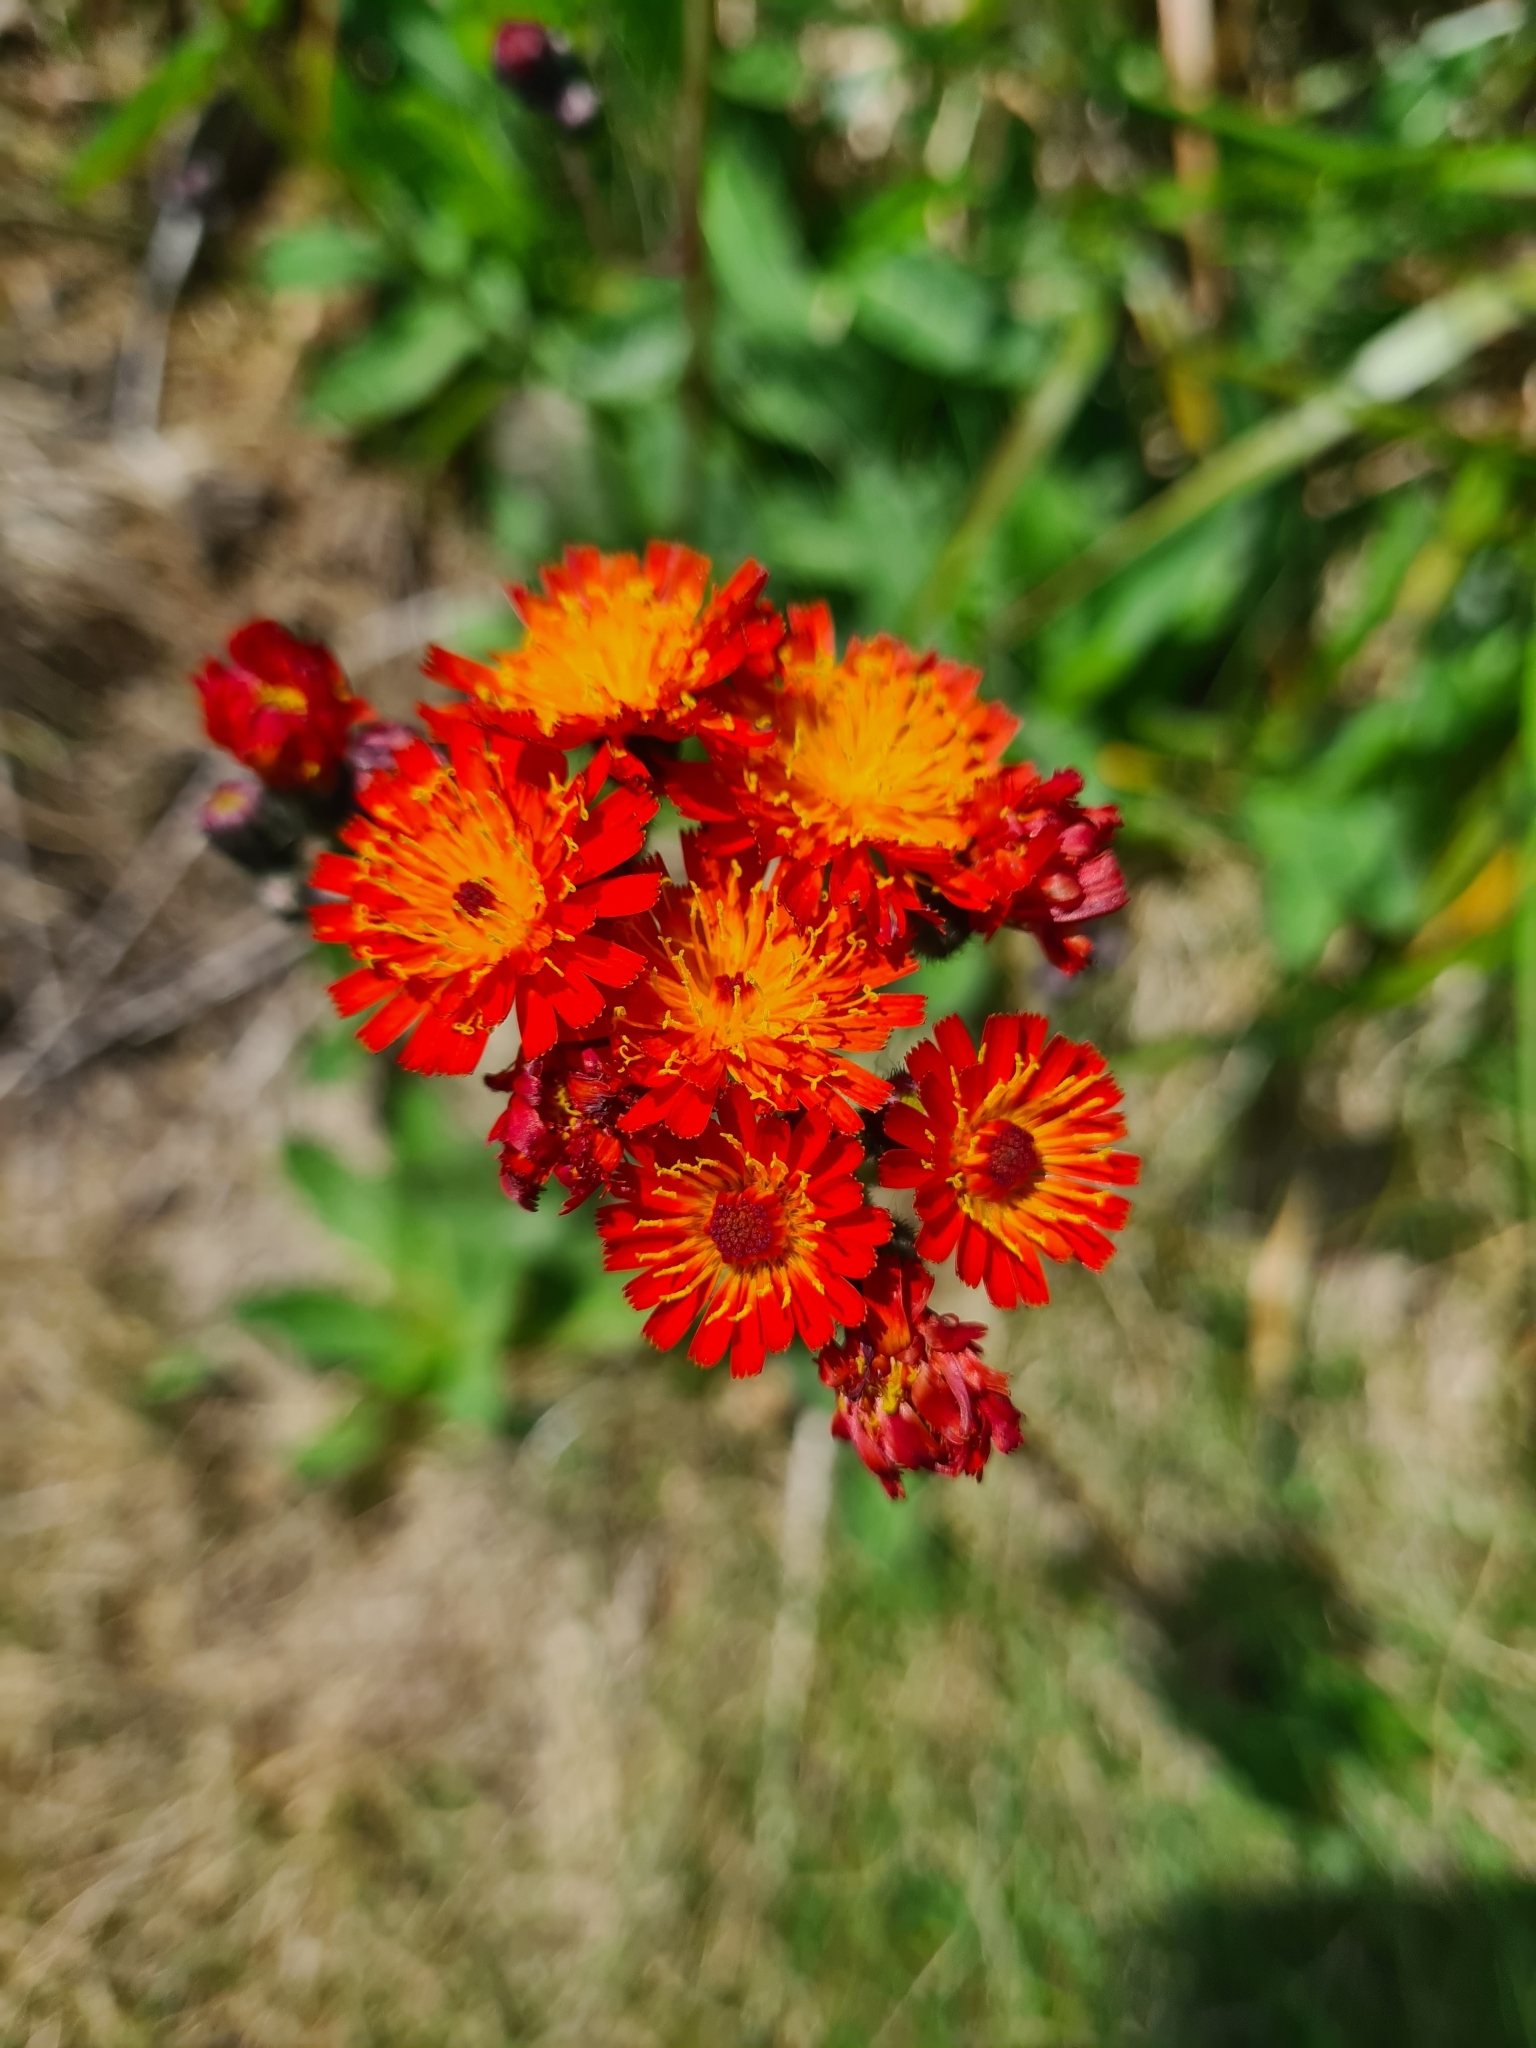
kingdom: Plantae
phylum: Tracheophyta
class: Magnoliopsida
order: Asterales
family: Asteraceae
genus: Pilosella
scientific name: Pilosella aurantiaca
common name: Fox-and-cubs
